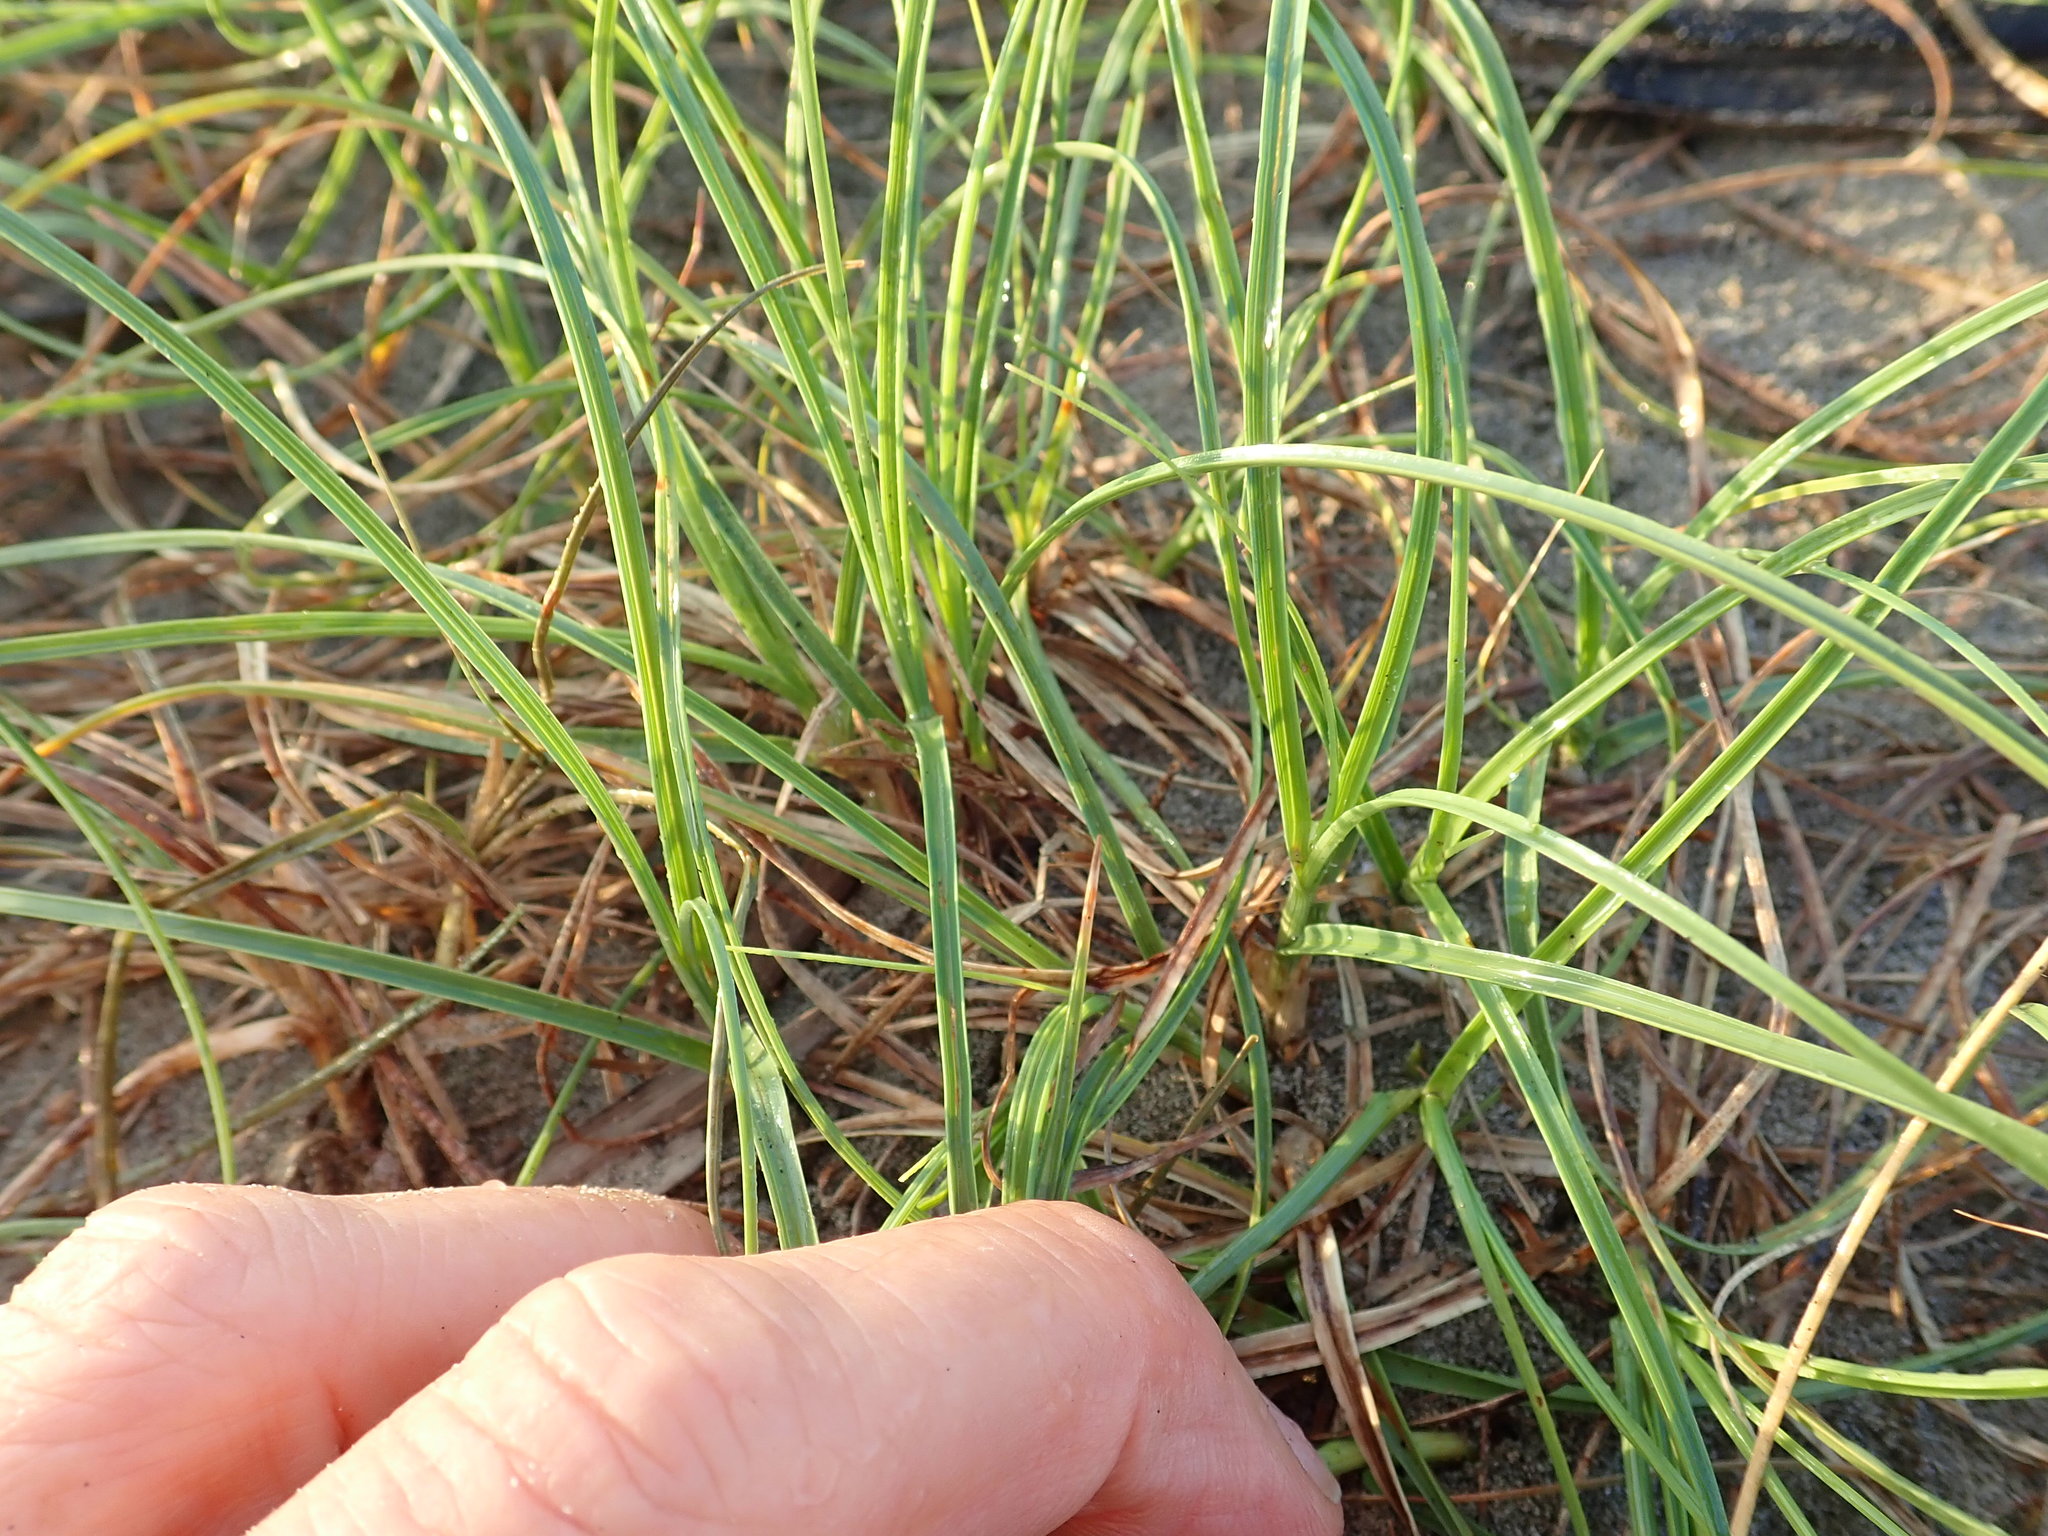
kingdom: Plantae
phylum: Tracheophyta
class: Liliopsida
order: Poales
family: Cyperaceae
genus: Carex
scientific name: Carex pumila
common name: Dwarf sedge
